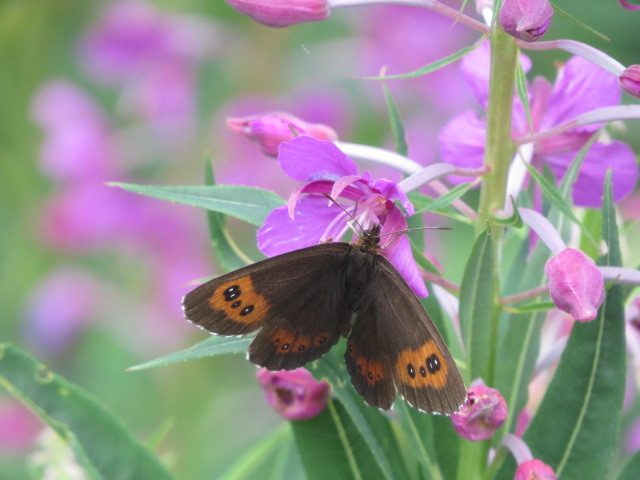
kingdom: Animalia
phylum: Arthropoda
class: Insecta
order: Lepidoptera
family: Nymphalidae
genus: Erebia
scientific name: Erebia ligea
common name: Arran brown
